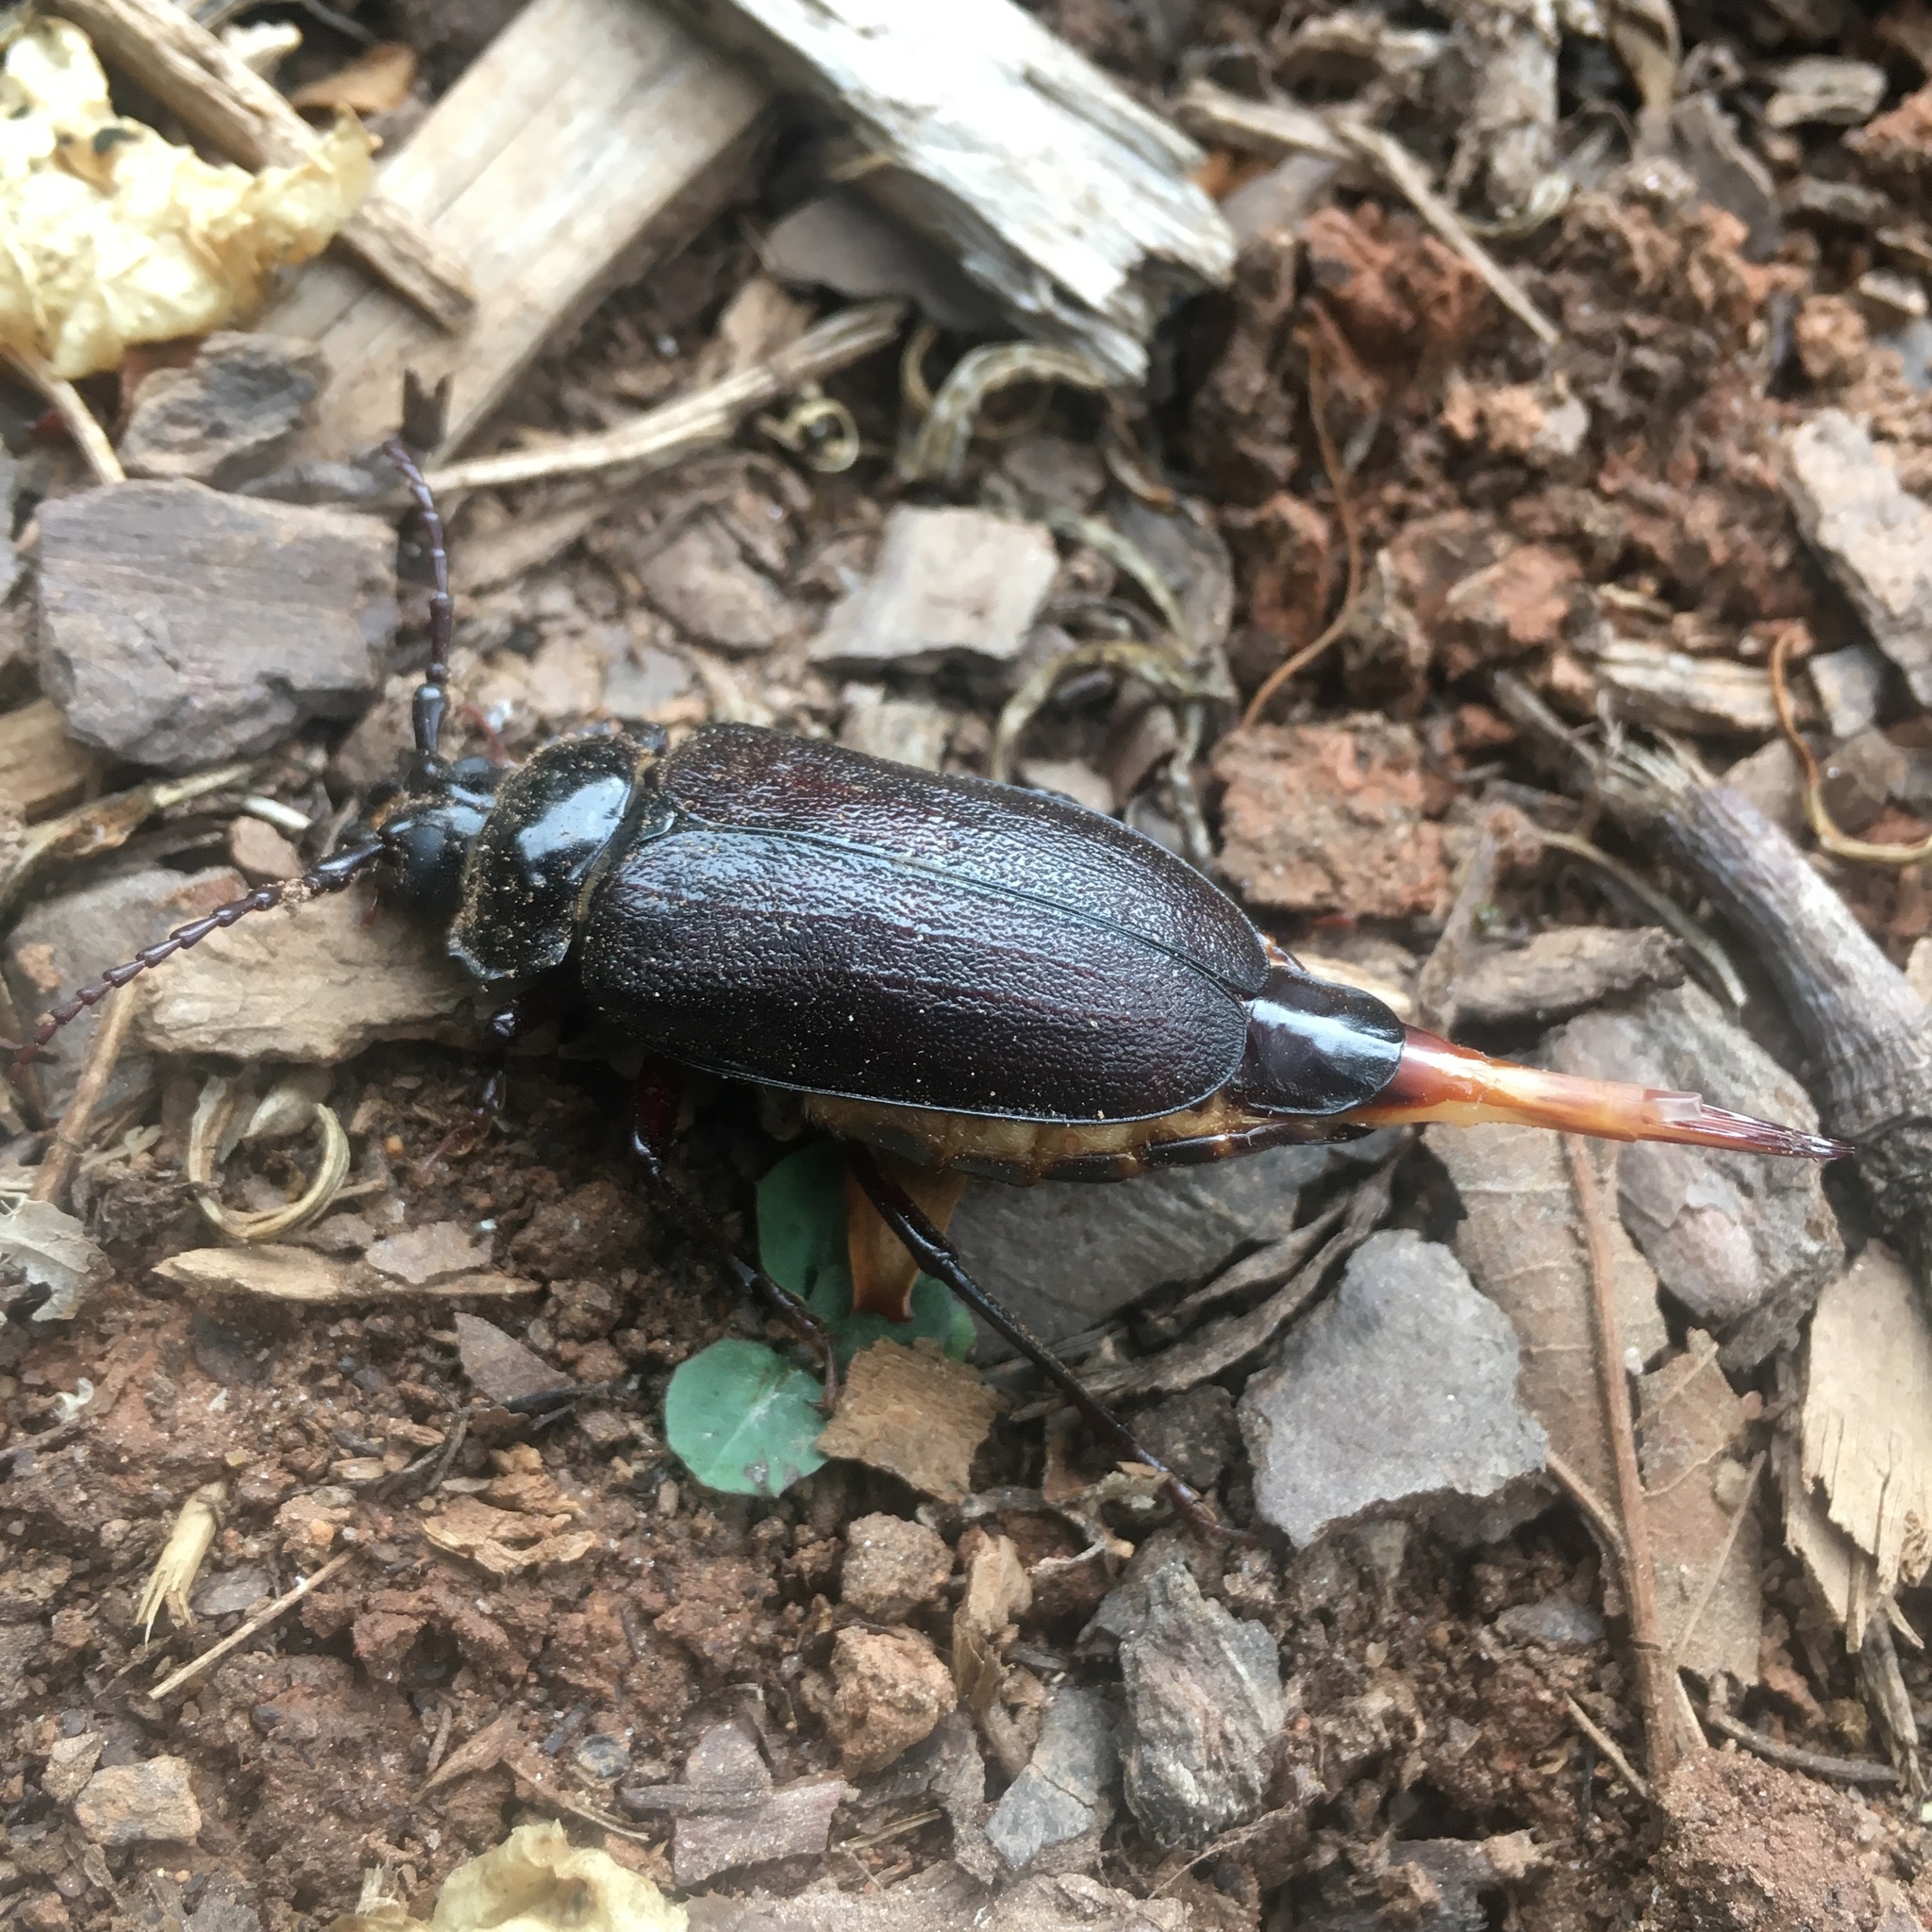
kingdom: Animalia
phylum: Arthropoda
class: Insecta
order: Coleoptera
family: Cerambycidae
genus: Prionus
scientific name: Prionus laticollis
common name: Broad necked prionus
